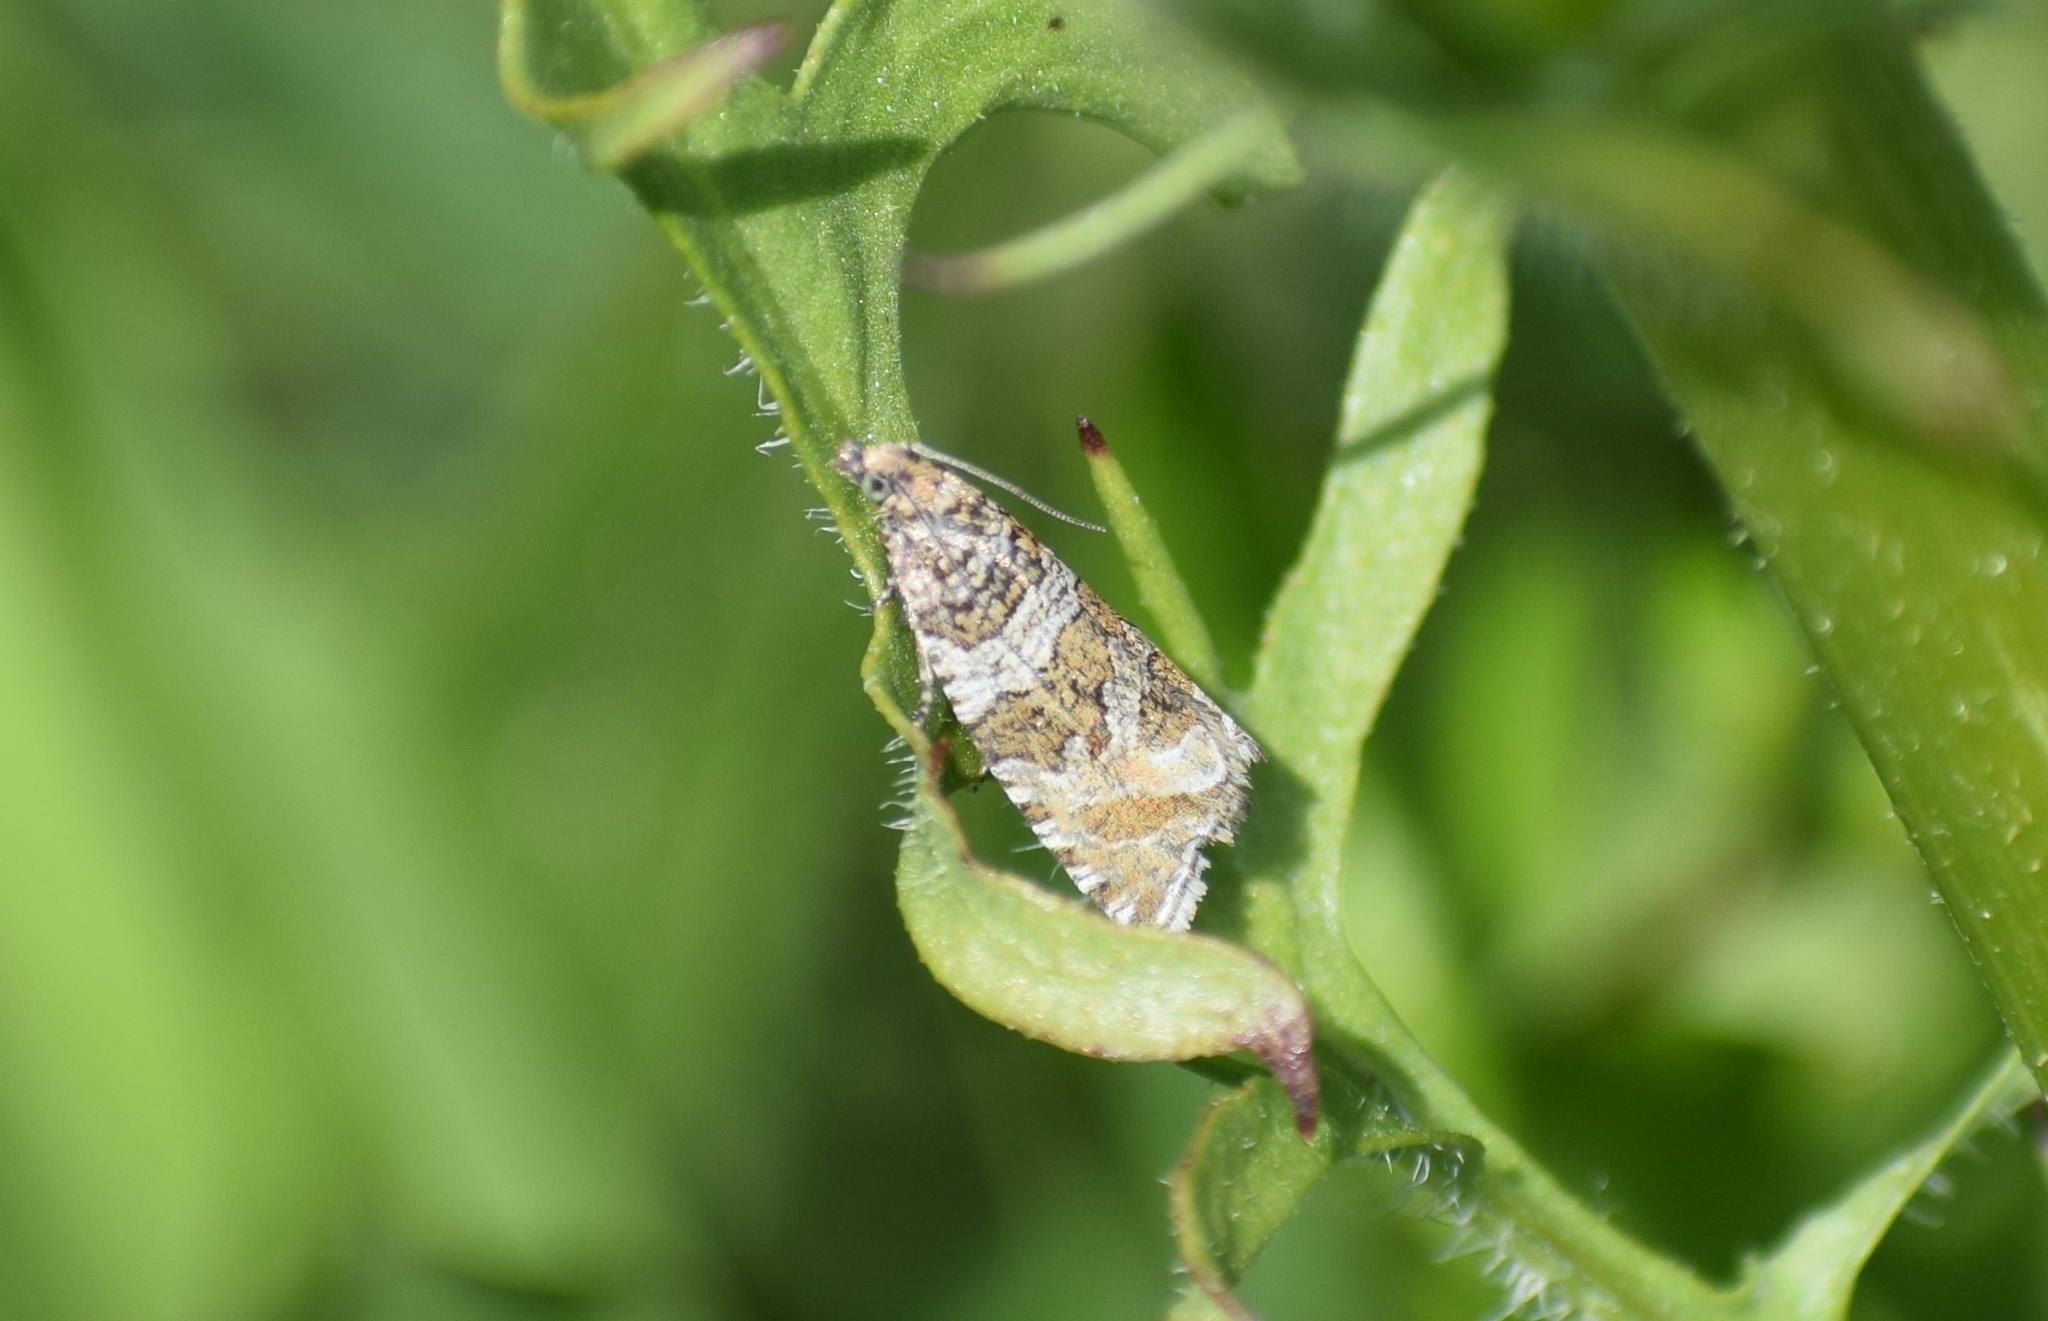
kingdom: Animalia
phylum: Arthropoda
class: Insecta
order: Lepidoptera
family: Tortricidae
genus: Syricoris
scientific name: Syricoris lacunana
